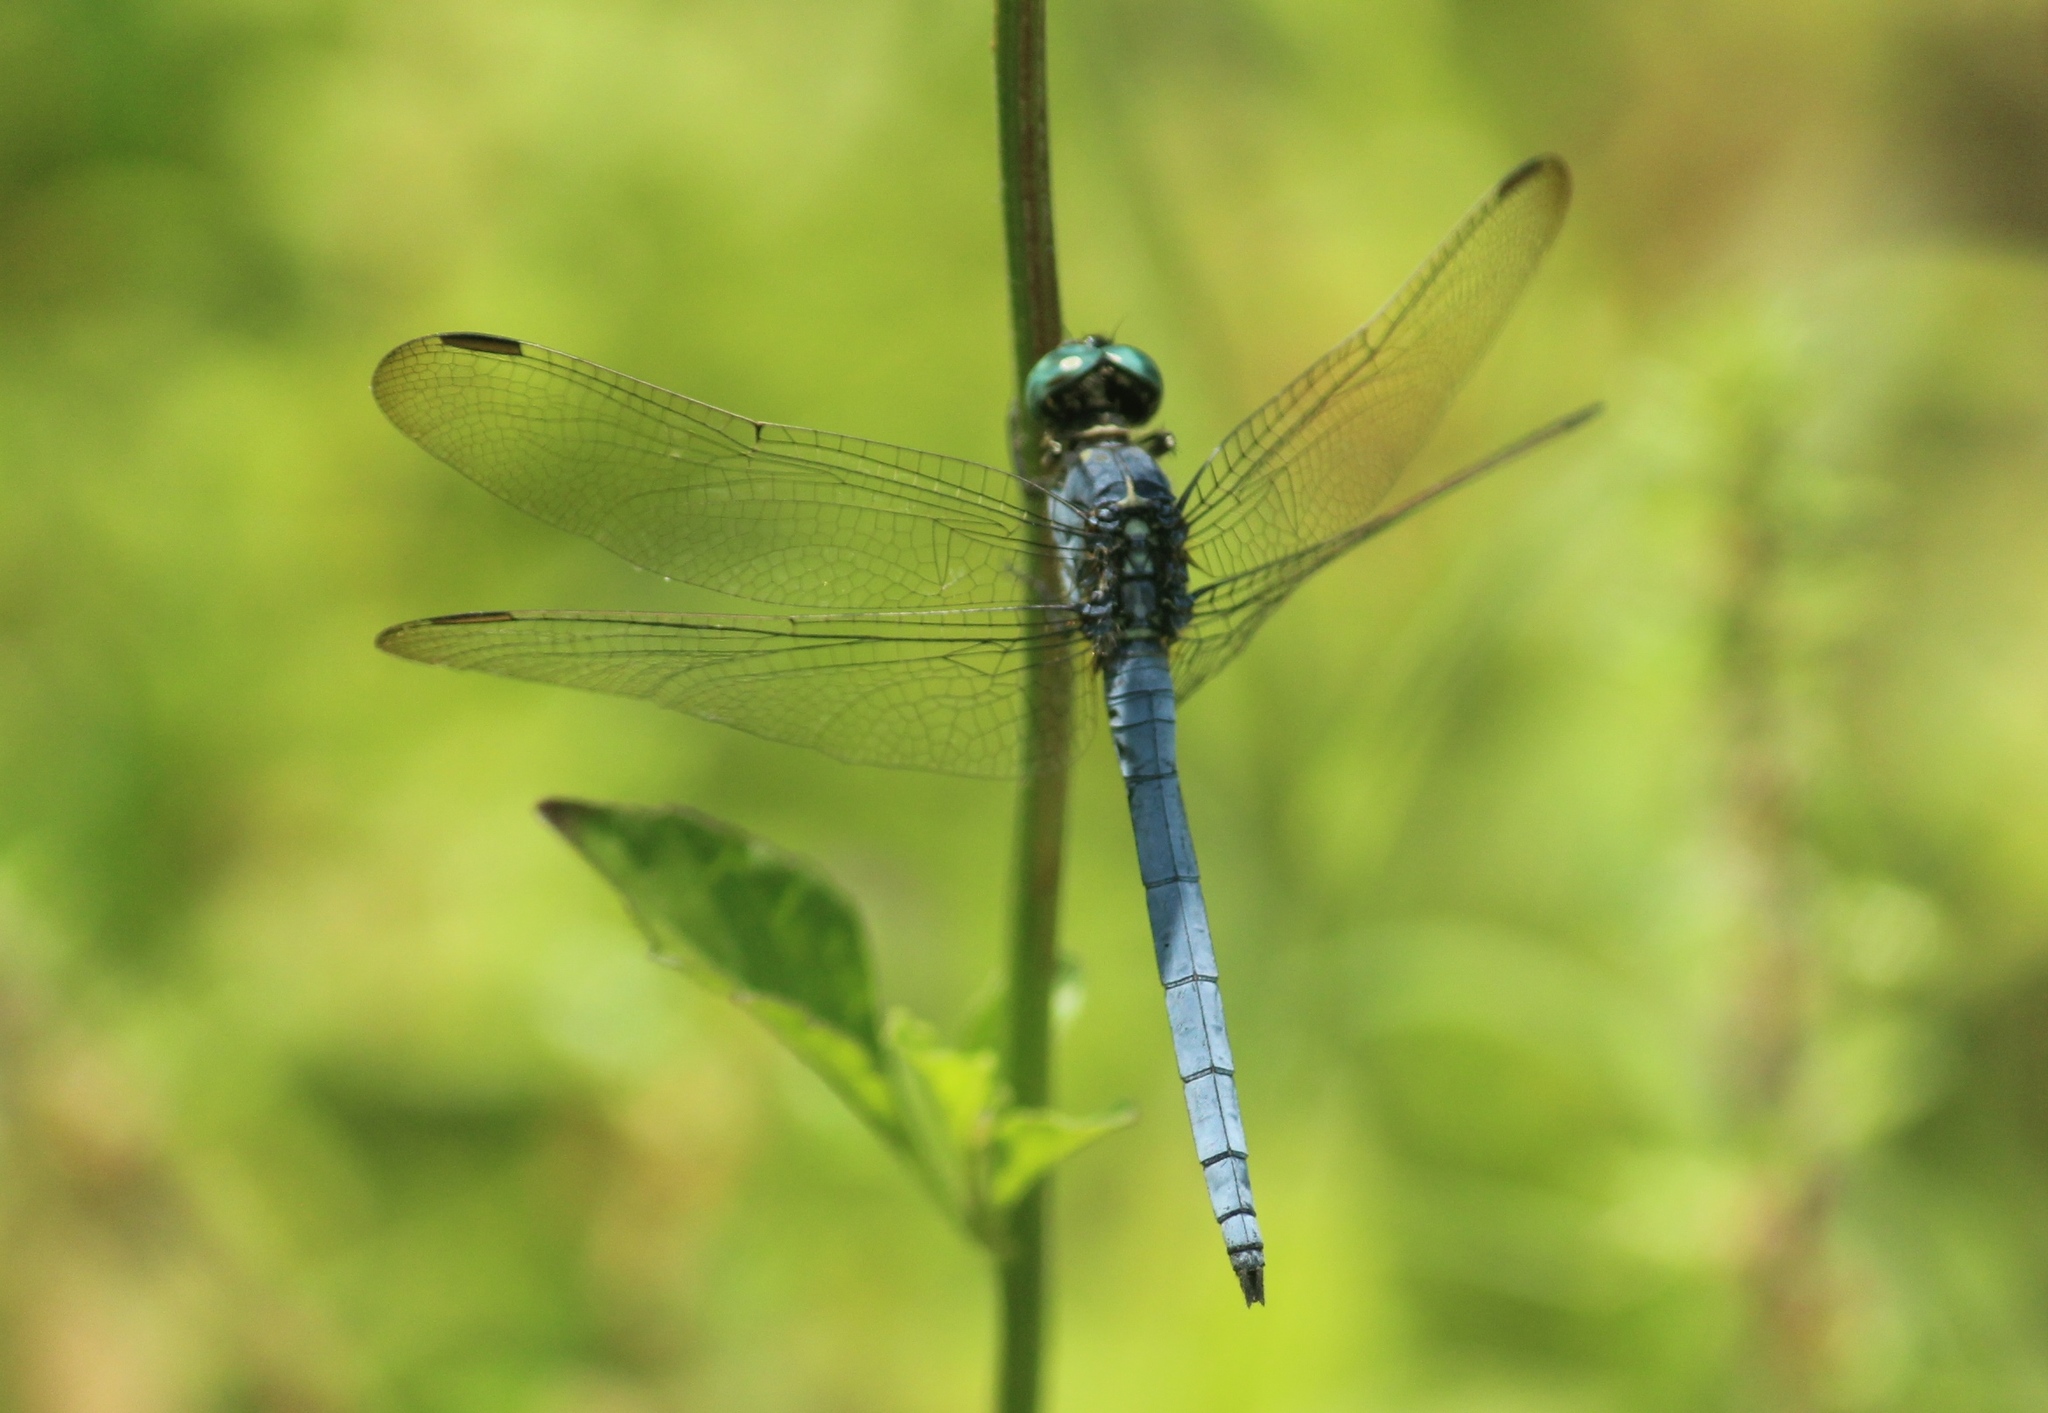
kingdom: Animalia
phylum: Arthropoda
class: Insecta
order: Odonata
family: Libellulidae
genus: Orthetrum
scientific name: Orthetrum luzonicum
